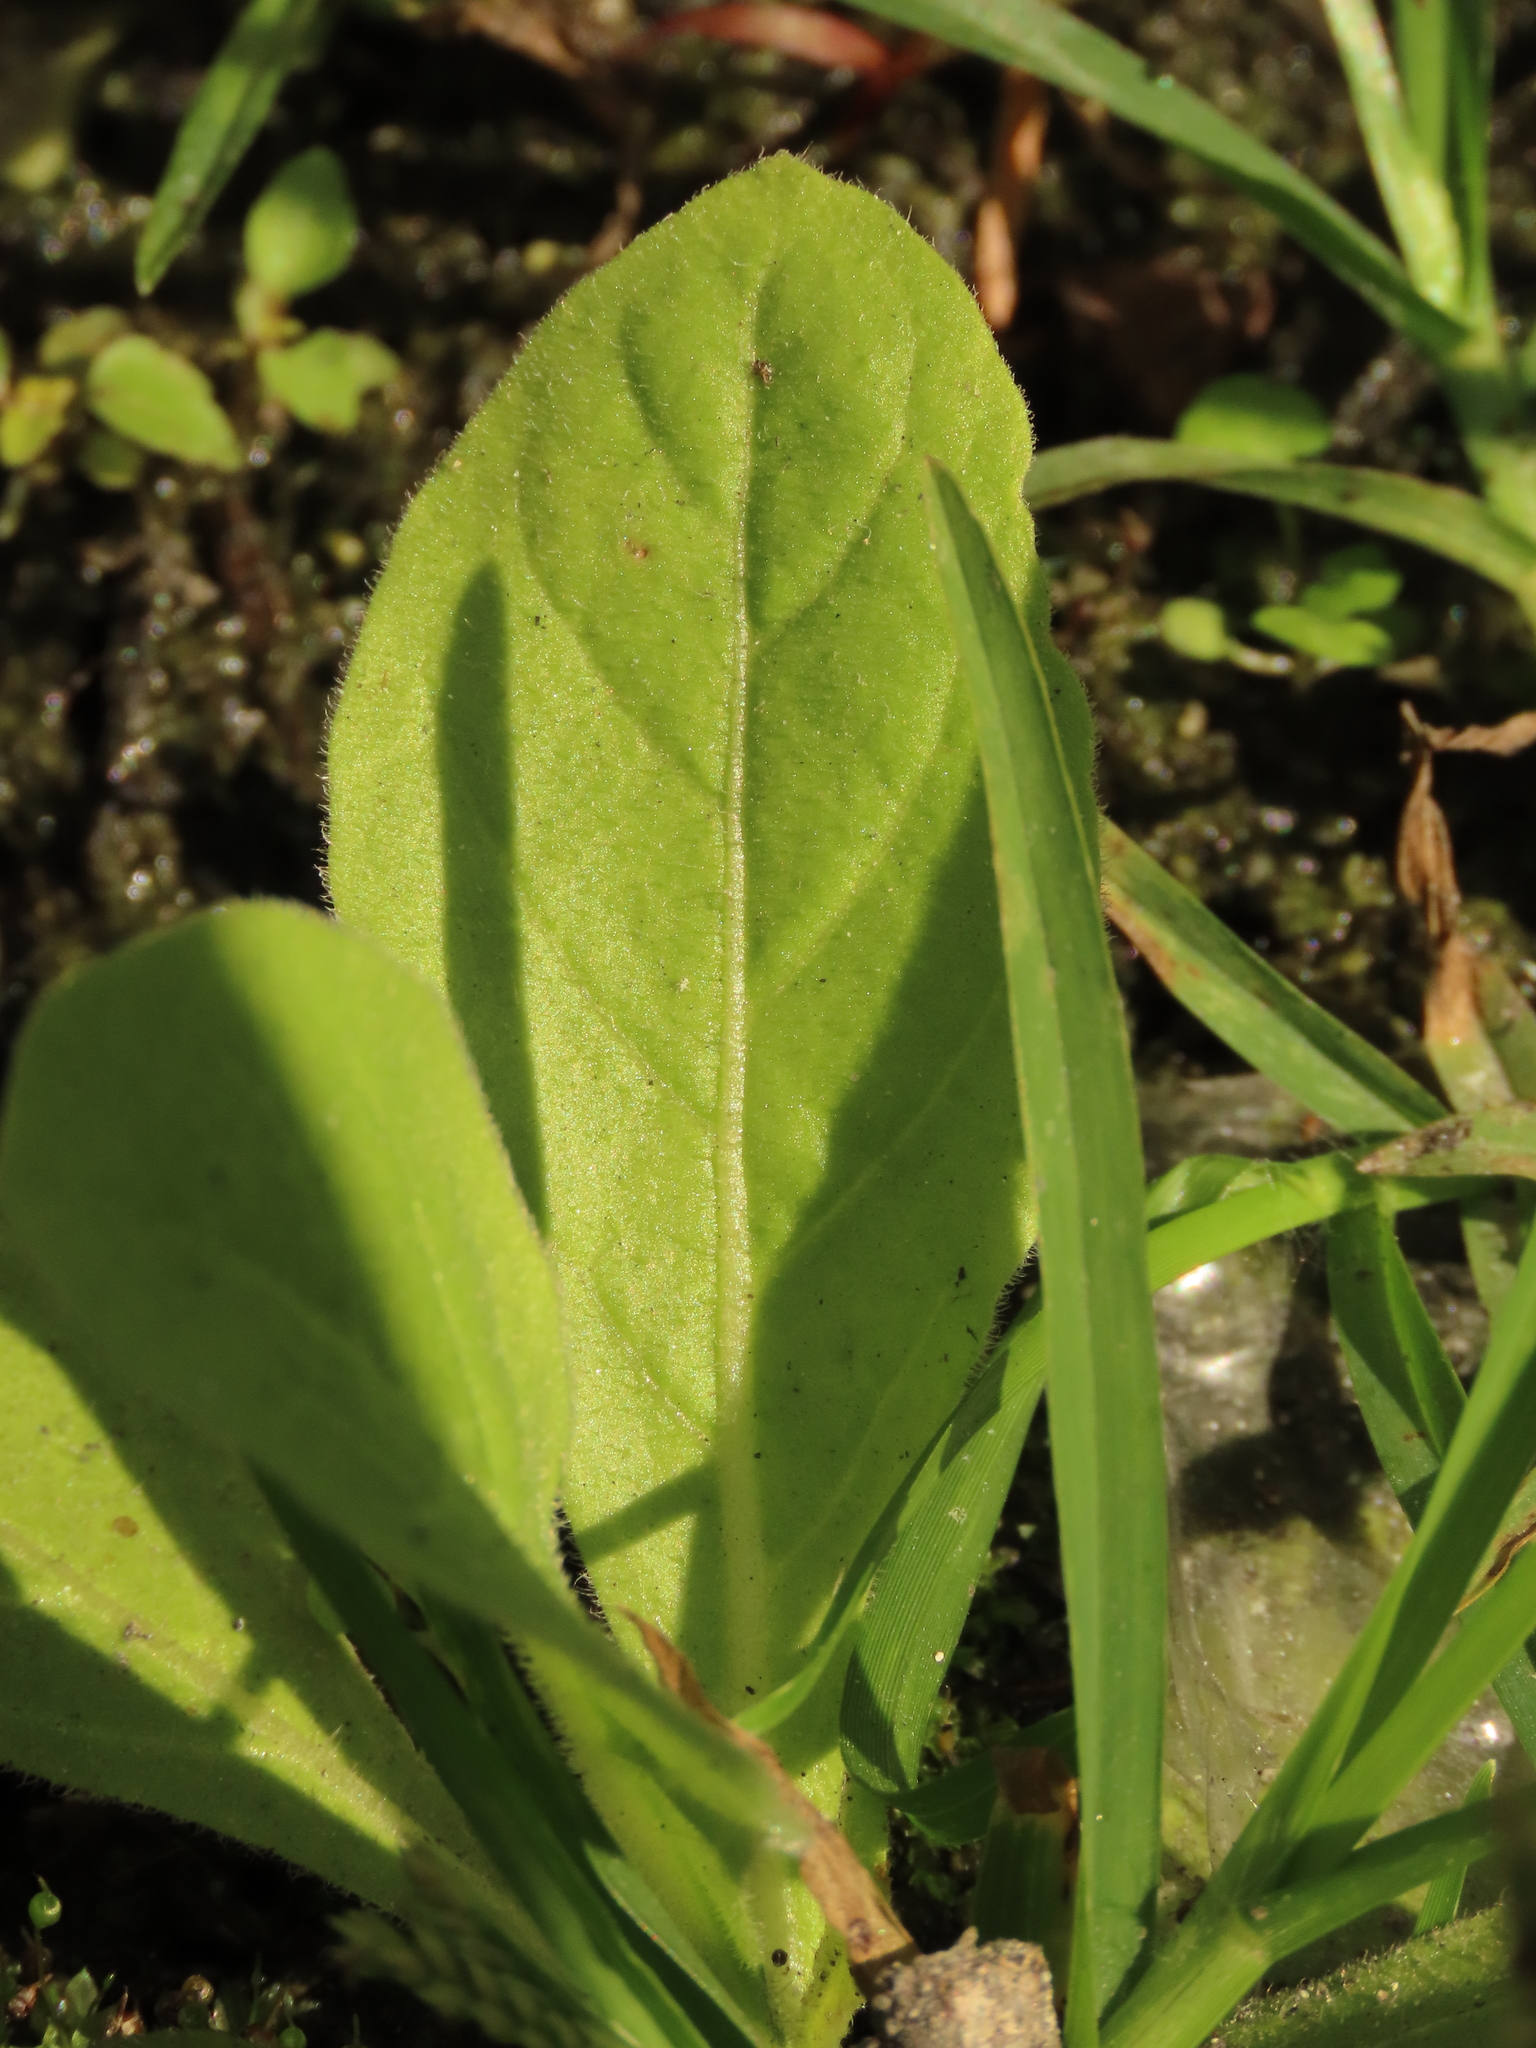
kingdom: Plantae
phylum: Tracheophyta
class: Magnoliopsida
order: Solanales
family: Solanaceae
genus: Nicotiana
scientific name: Nicotiana plumbaginifolia
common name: Tex-mex tobacco
